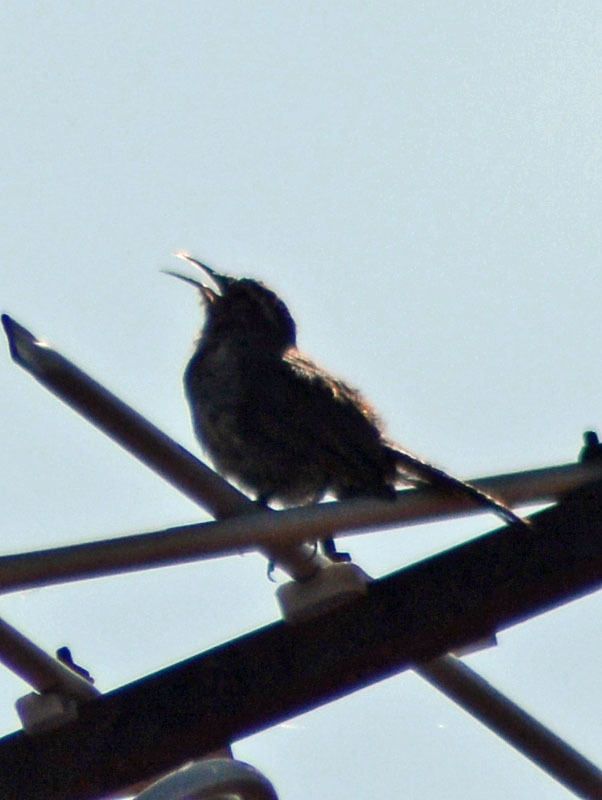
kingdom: Animalia
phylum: Chordata
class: Aves
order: Passeriformes
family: Troglodytidae
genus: Thryomanes
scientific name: Thryomanes bewickii
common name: Bewick's wren
